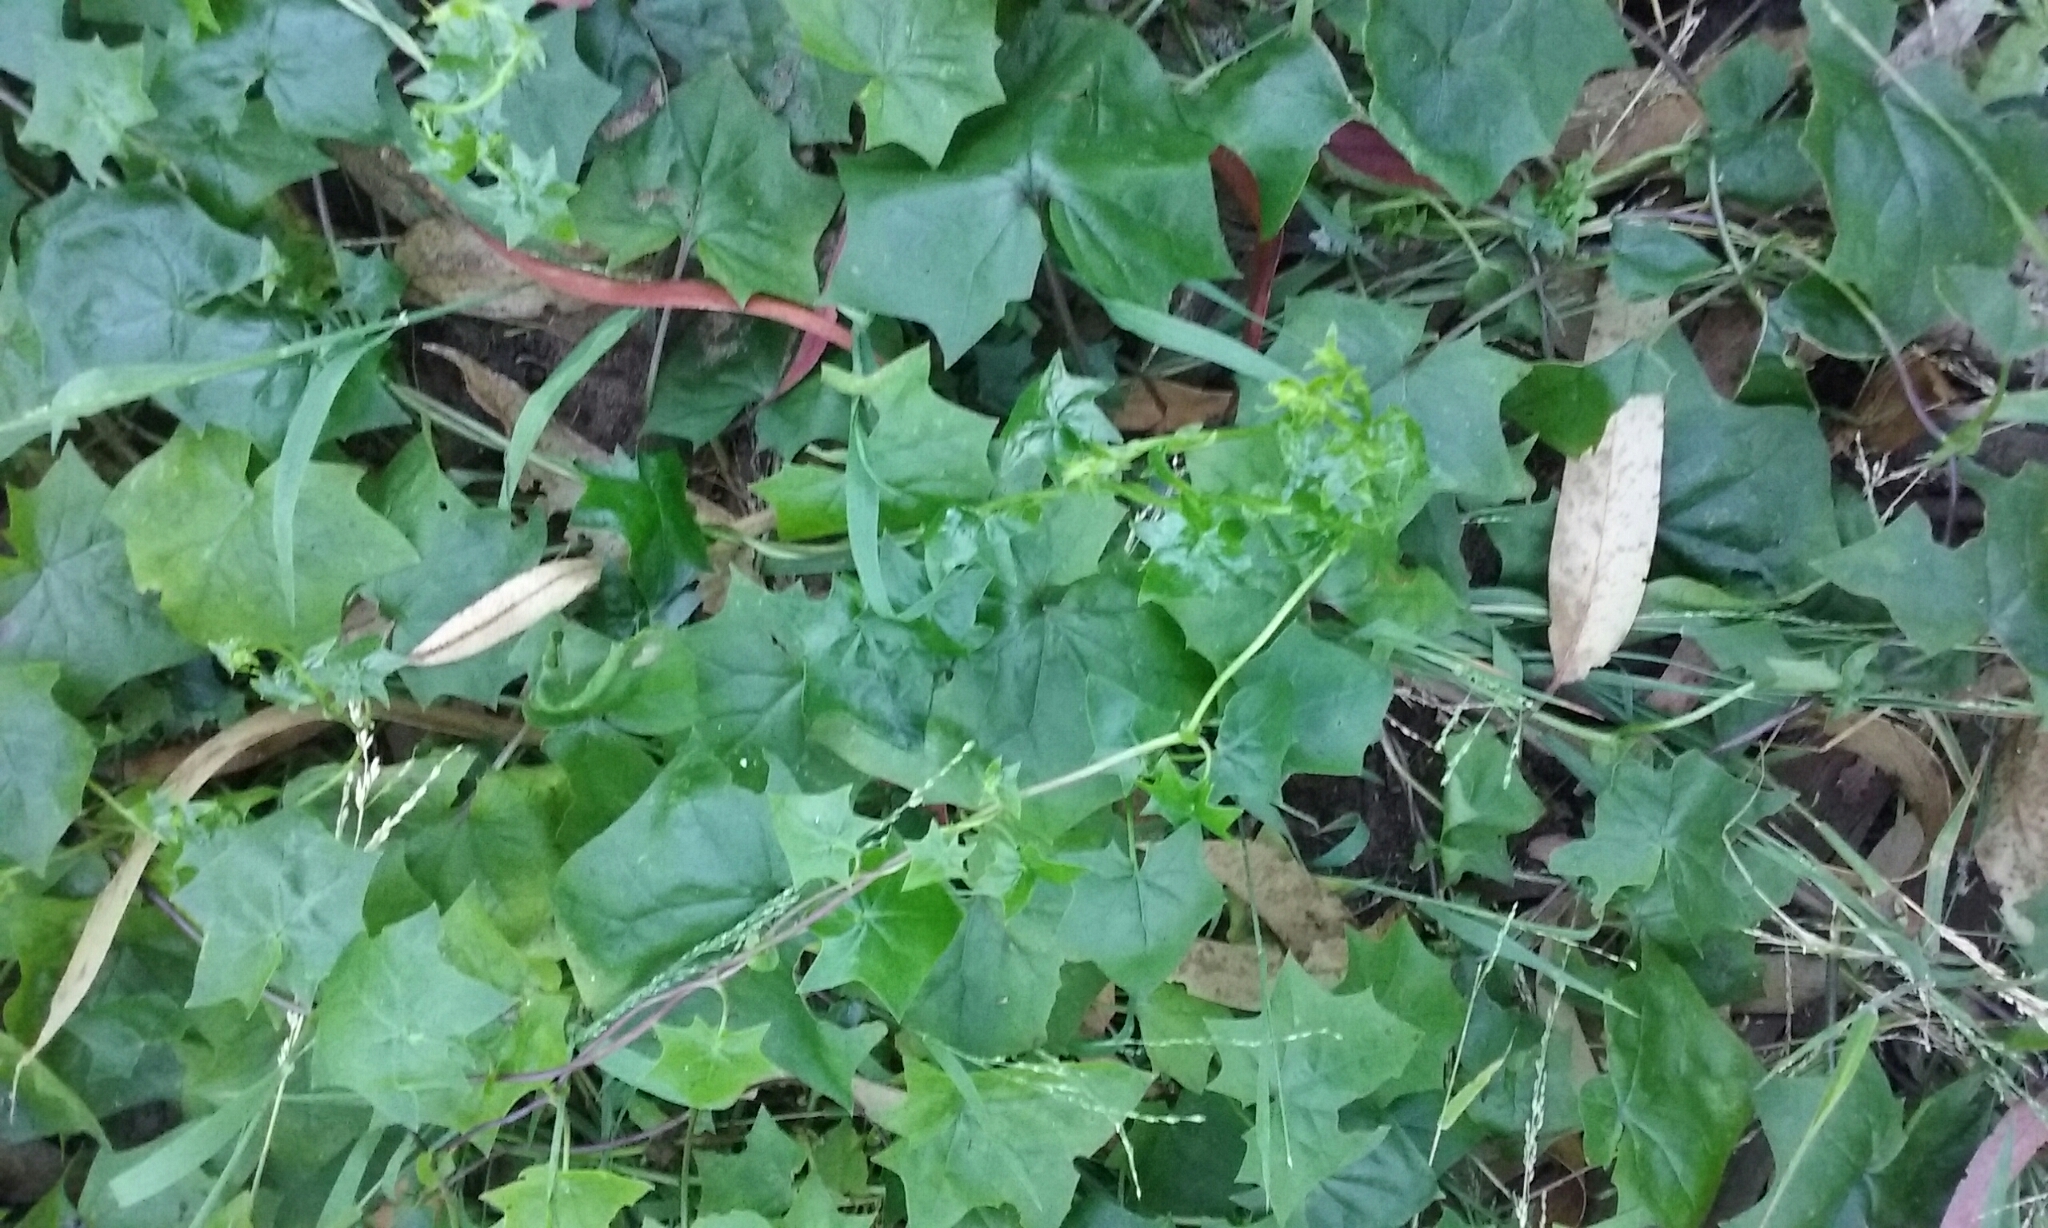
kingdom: Plantae
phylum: Tracheophyta
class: Magnoliopsida
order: Asterales
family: Asteraceae
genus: Delairea
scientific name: Delairea odorata
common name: Cape-ivy
